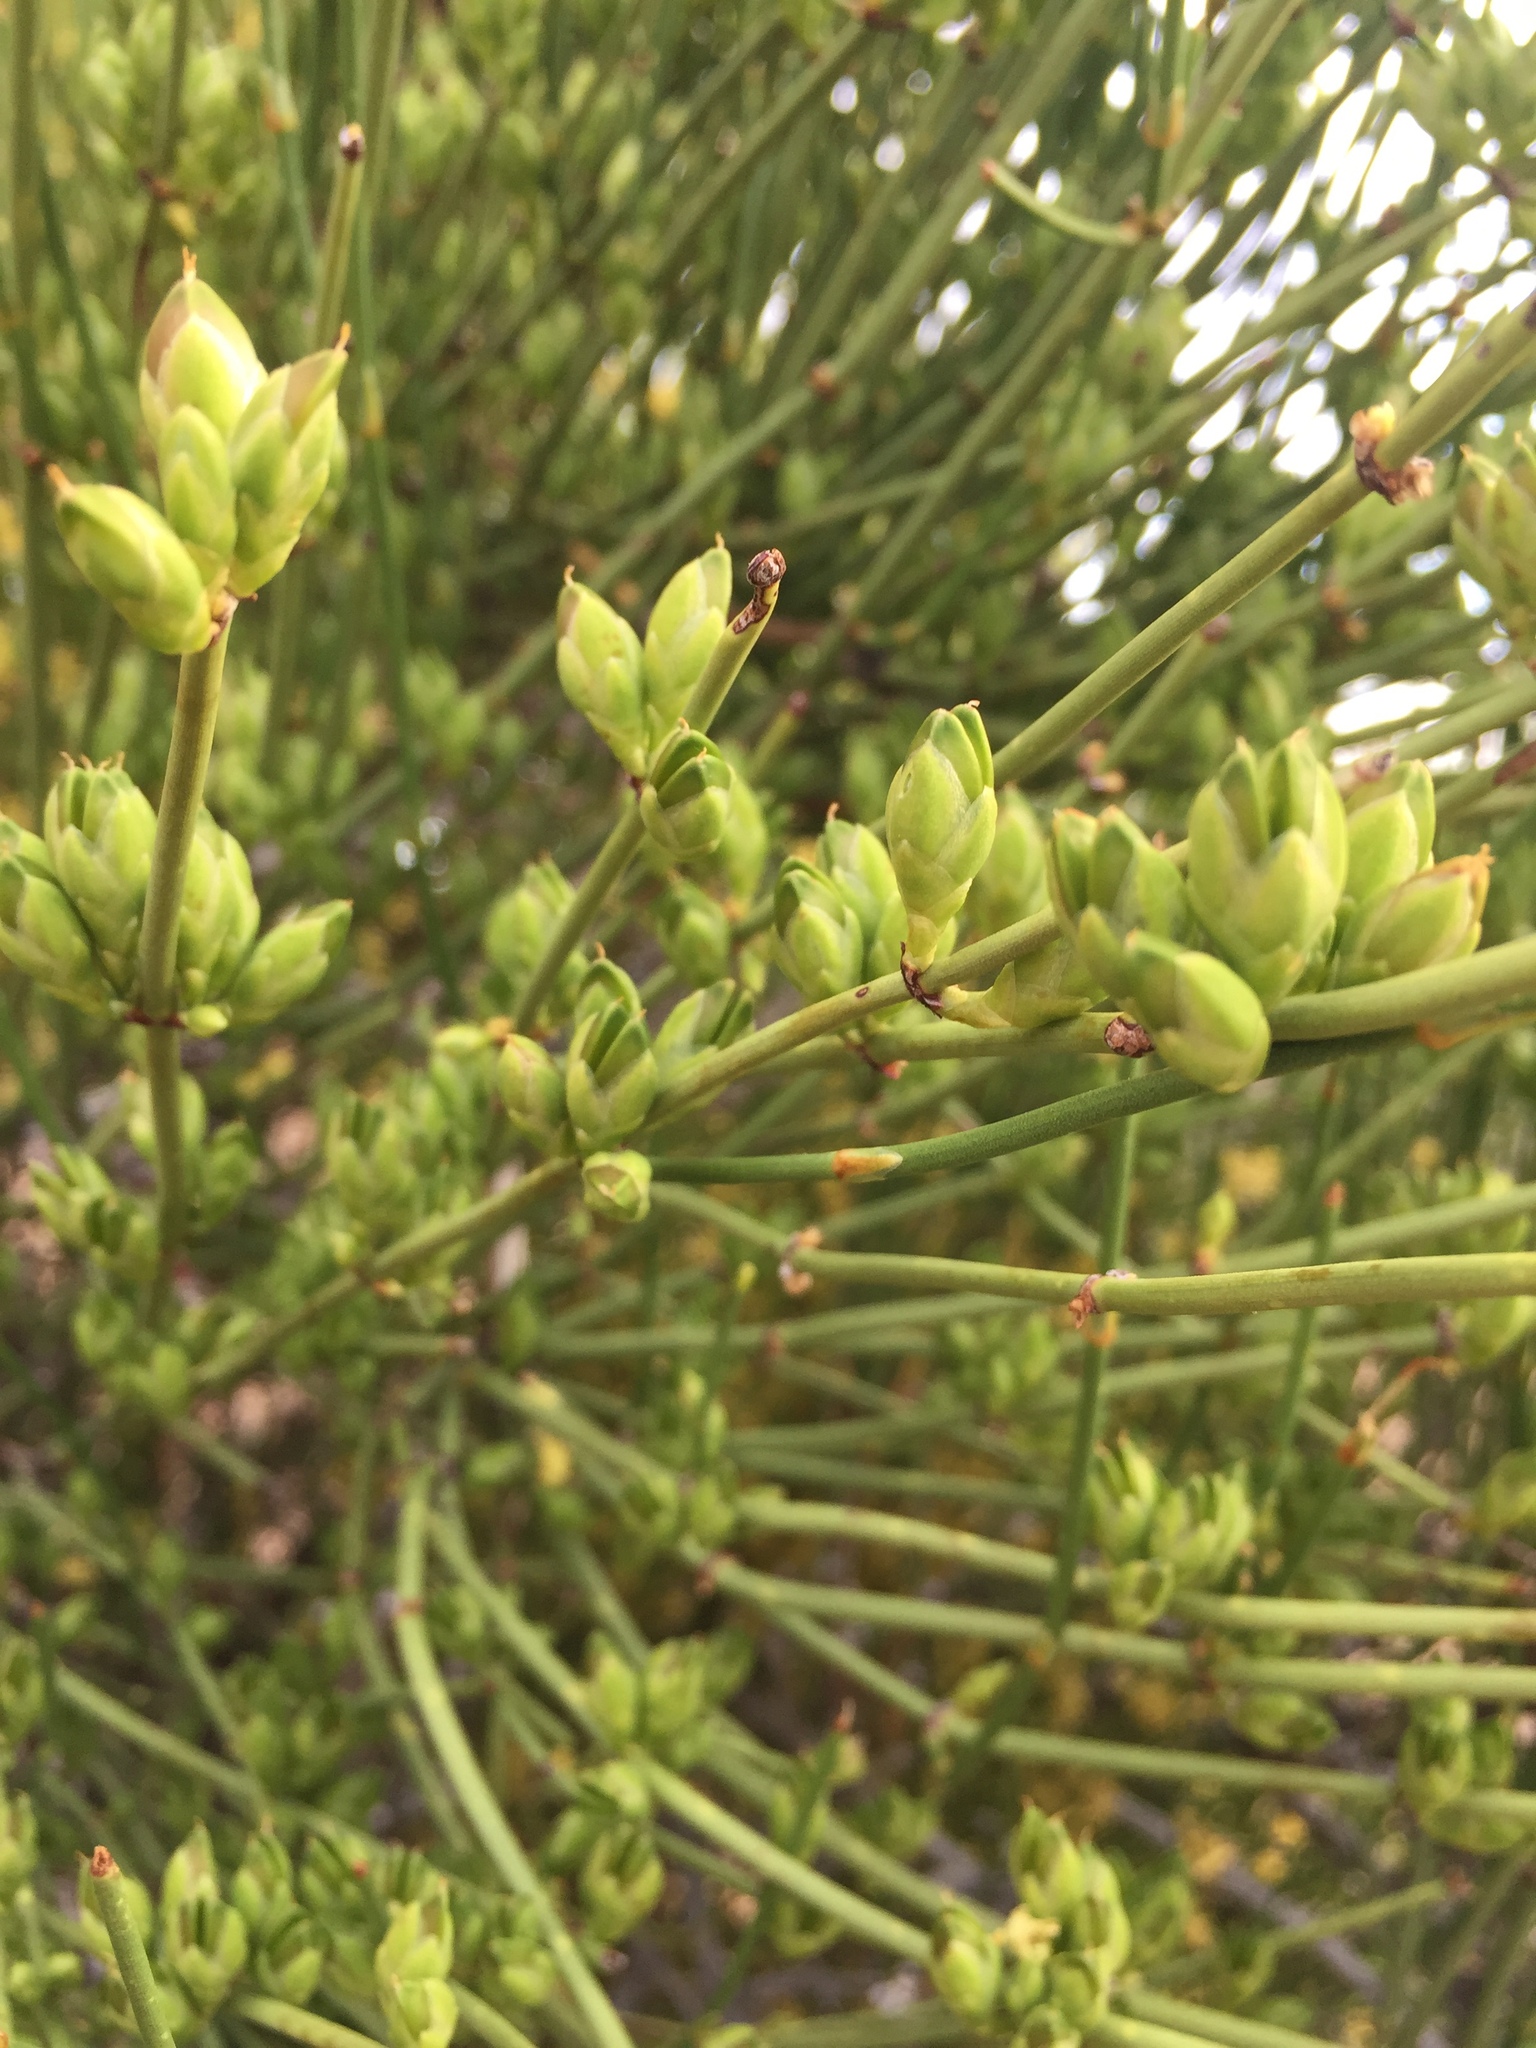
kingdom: Plantae
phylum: Tracheophyta
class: Gnetopsida
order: Ephedrales
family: Ephedraceae
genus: Ephedra
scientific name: Ephedra viridis
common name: Green ephedra
